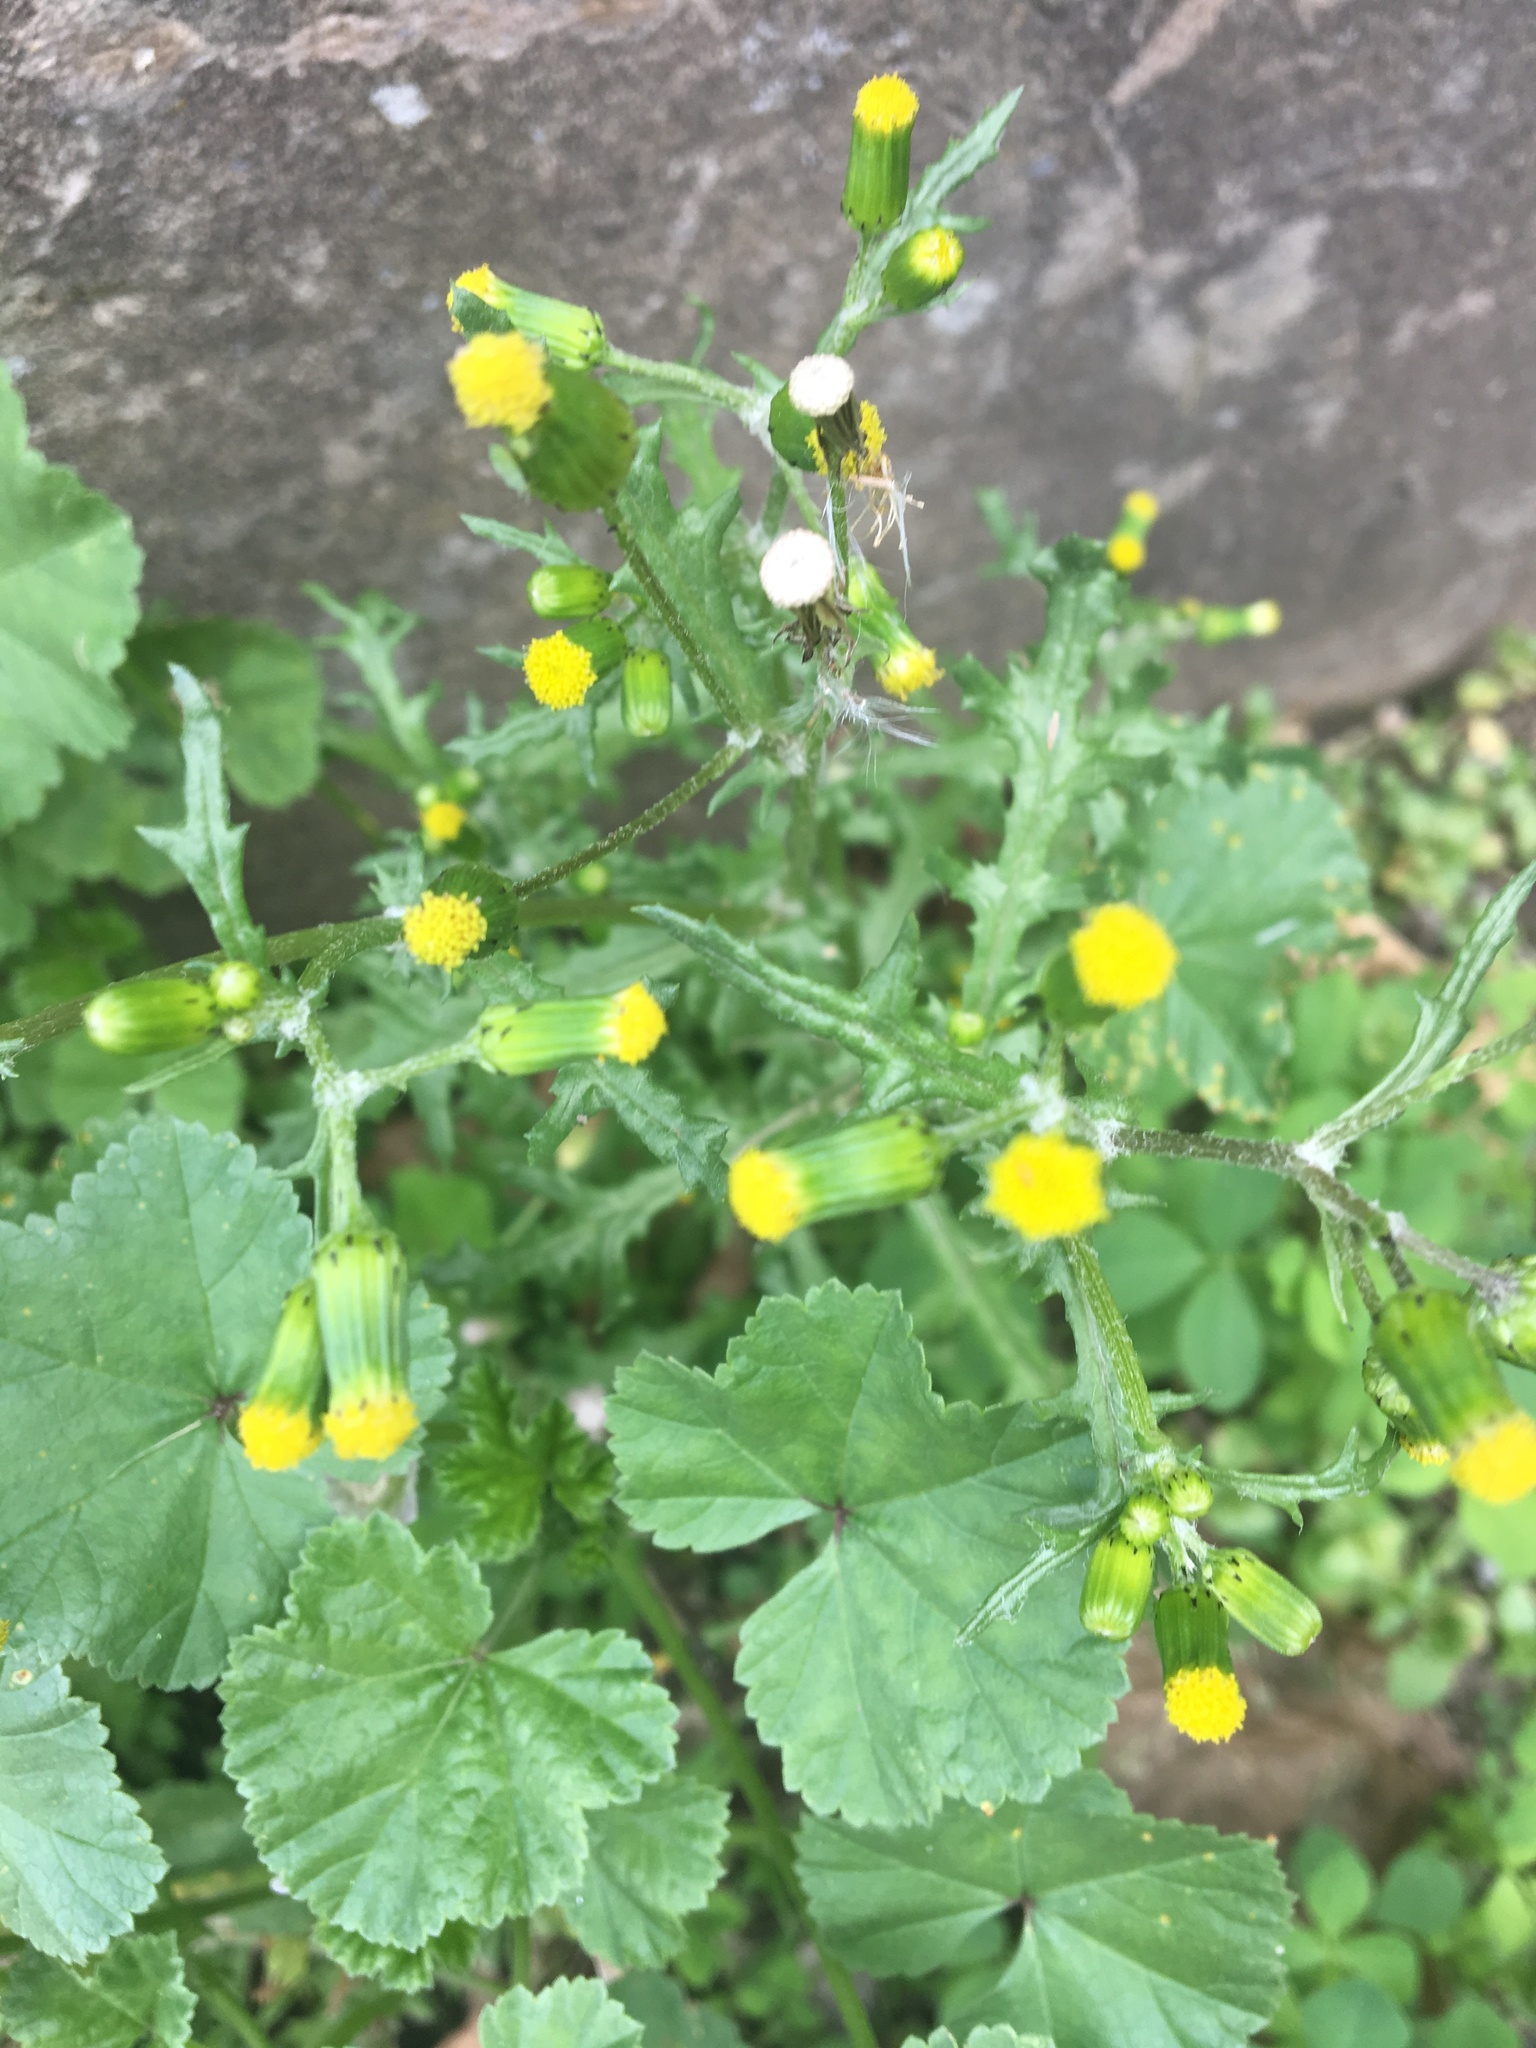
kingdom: Plantae
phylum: Tracheophyta
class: Magnoliopsida
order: Asterales
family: Asteraceae
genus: Senecio
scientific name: Senecio vulgaris
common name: Old-man-in-the-spring
